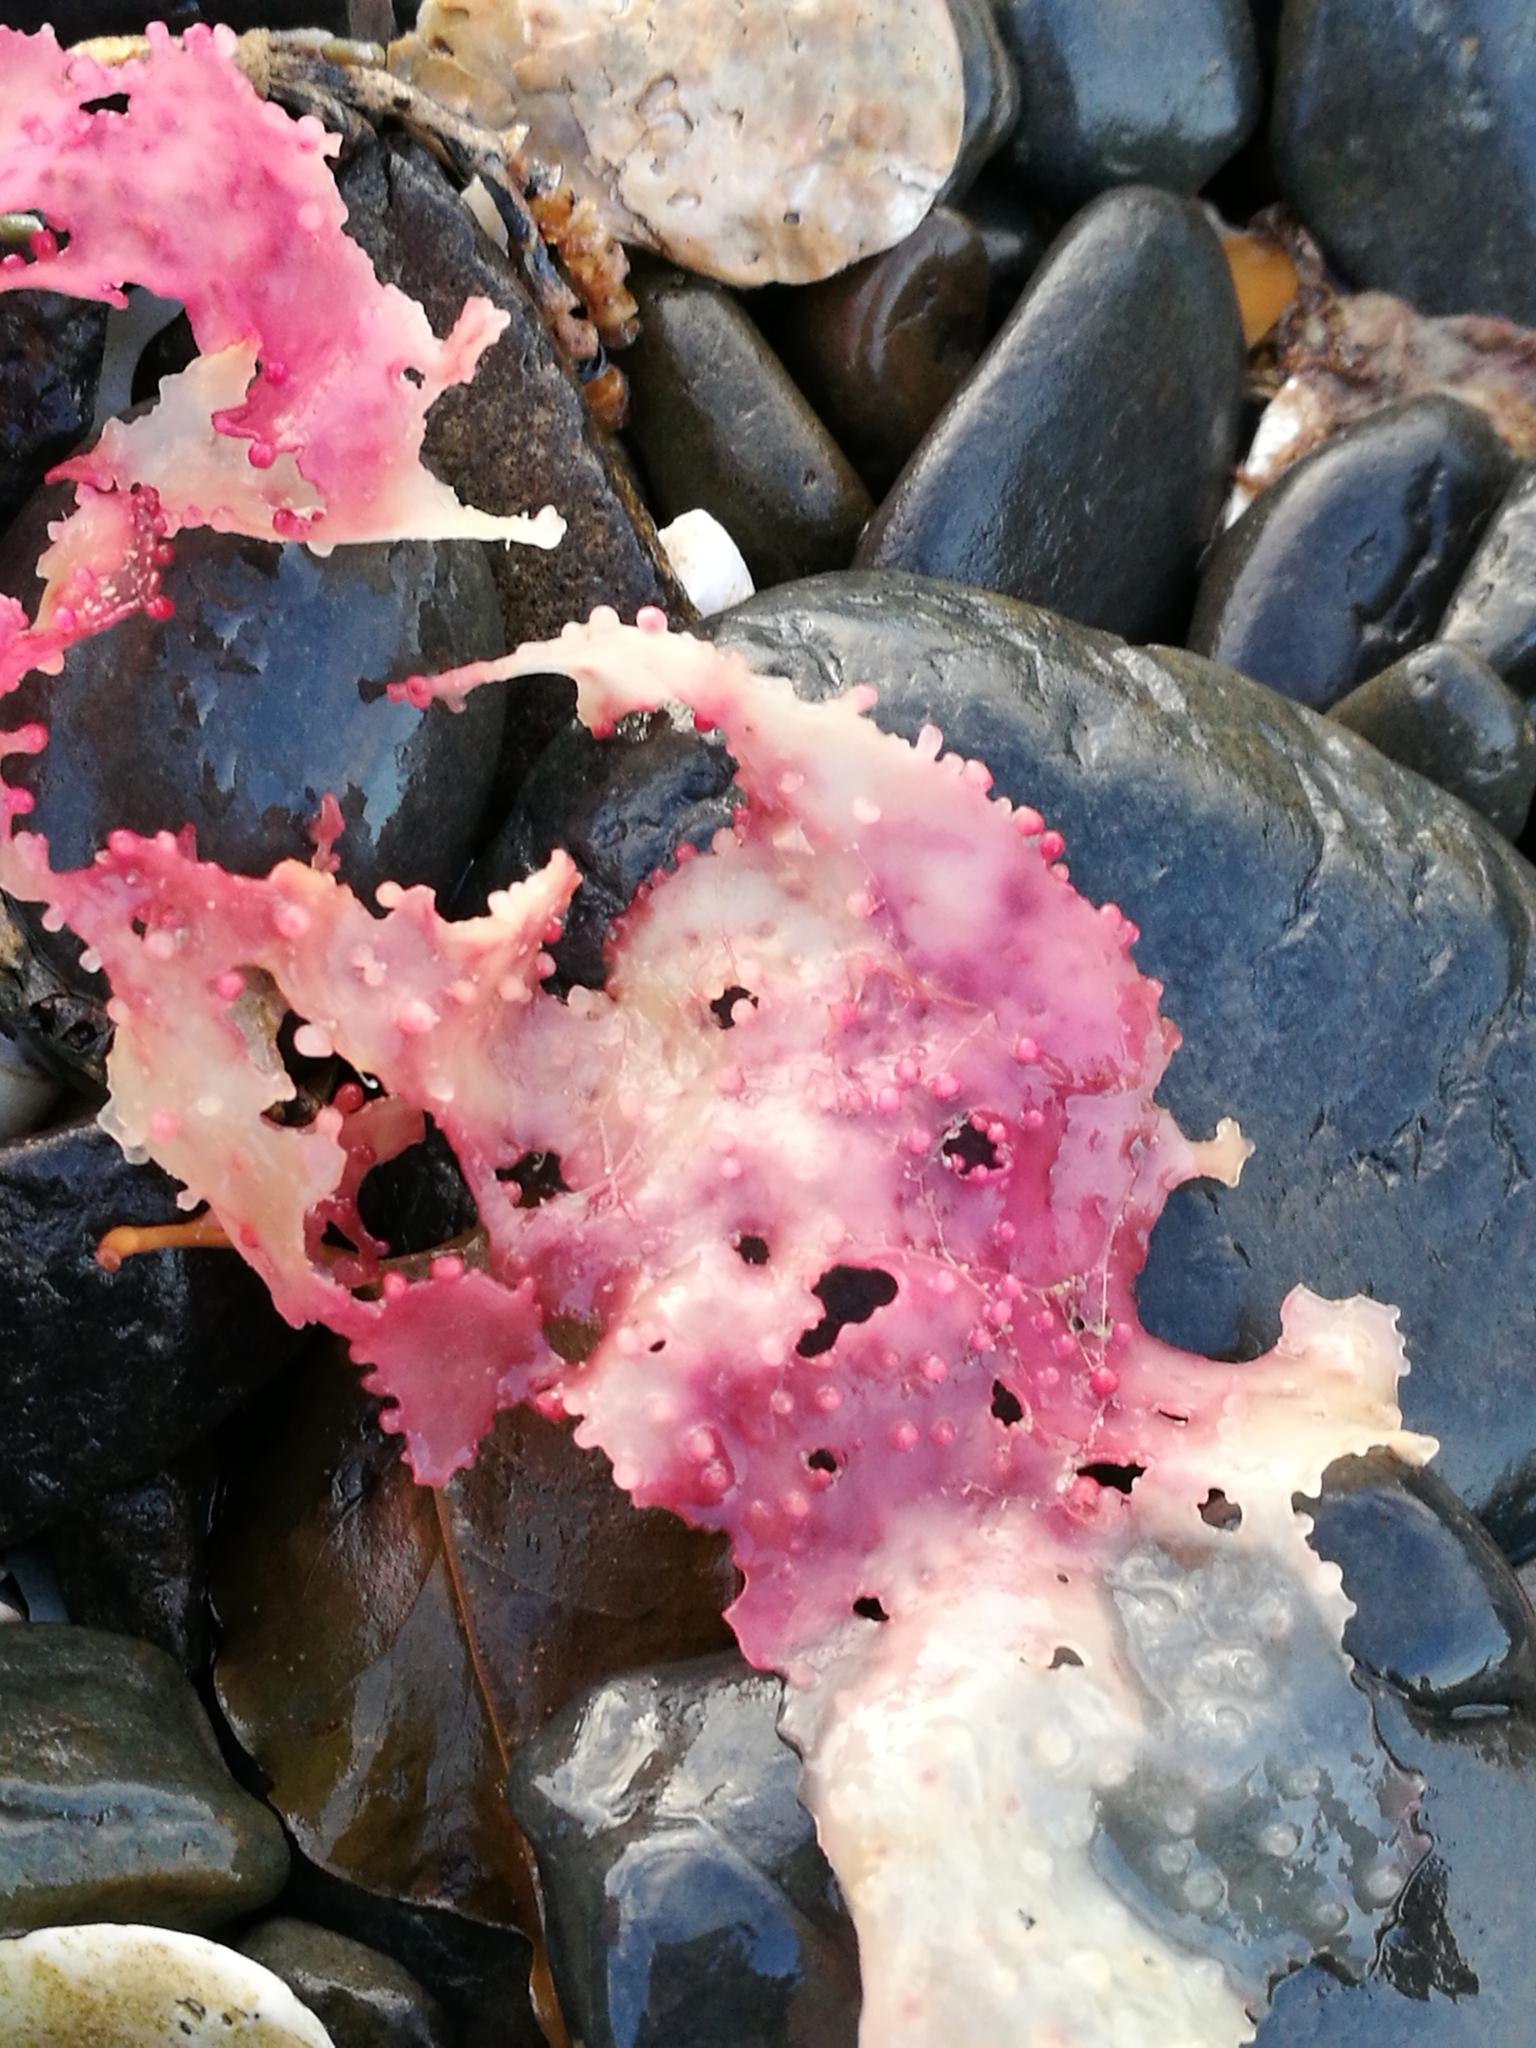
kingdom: Plantae
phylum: Rhodophyta
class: Florideophyceae
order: Gigartinales
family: Gigartinaceae
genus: Sarcothalia
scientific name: Sarcothalia circumcincta
